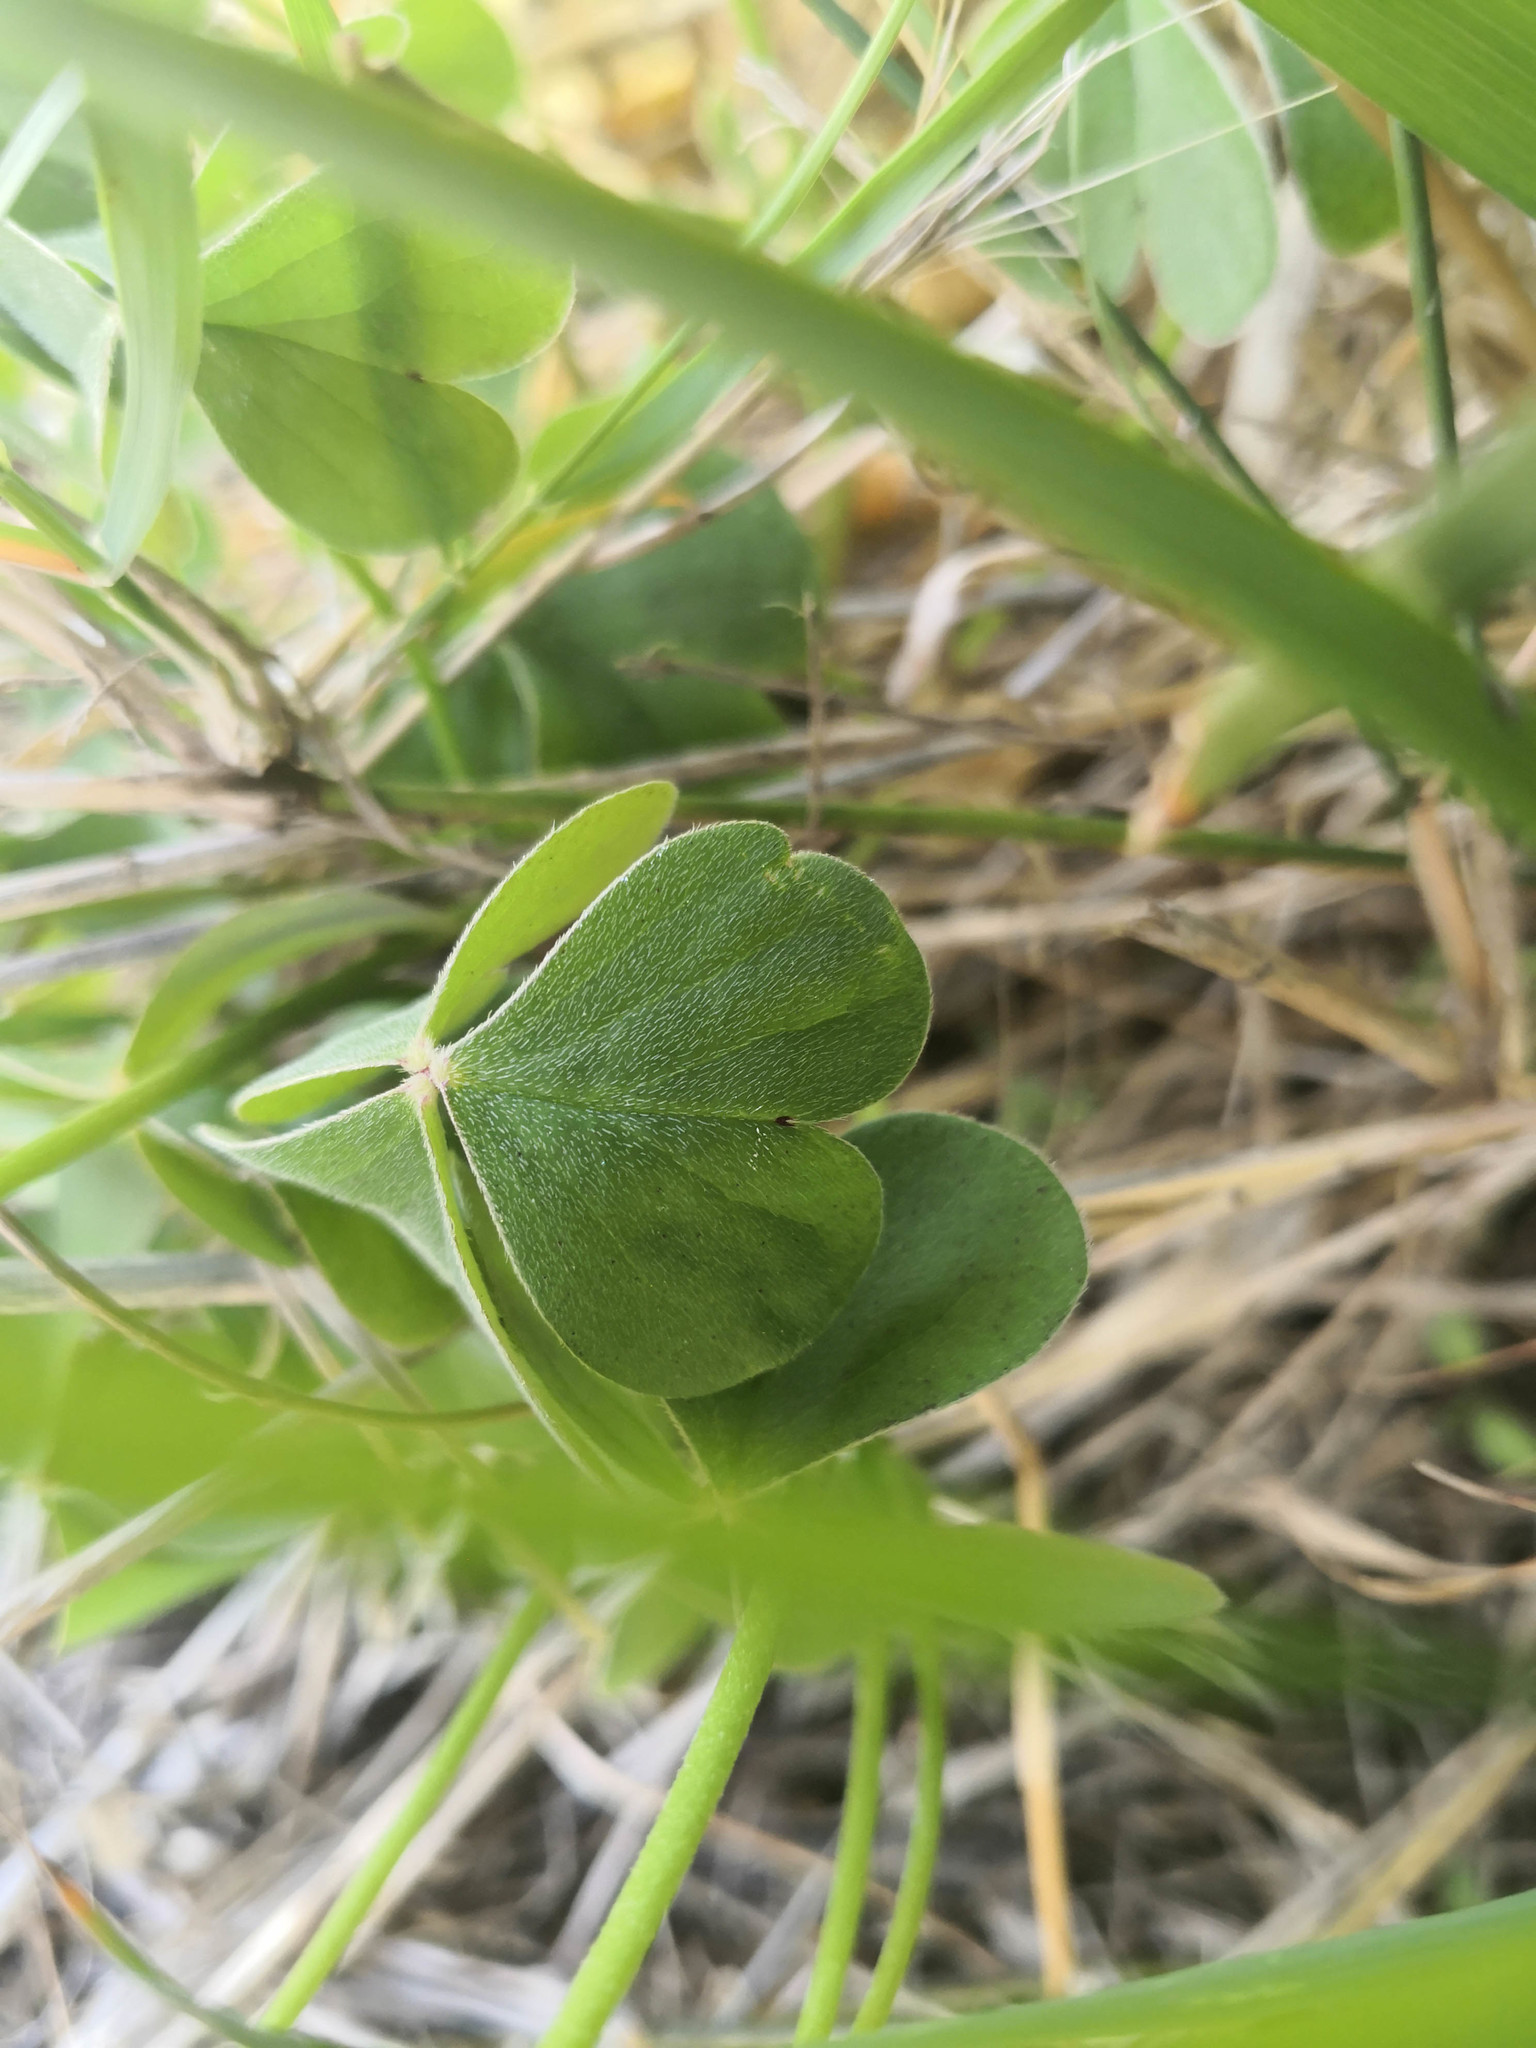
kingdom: Plantae
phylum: Tracheophyta
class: Magnoliopsida
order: Oxalidales
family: Oxalidaceae
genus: Oxalis
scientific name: Oxalis articulata
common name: Pink-sorrel
